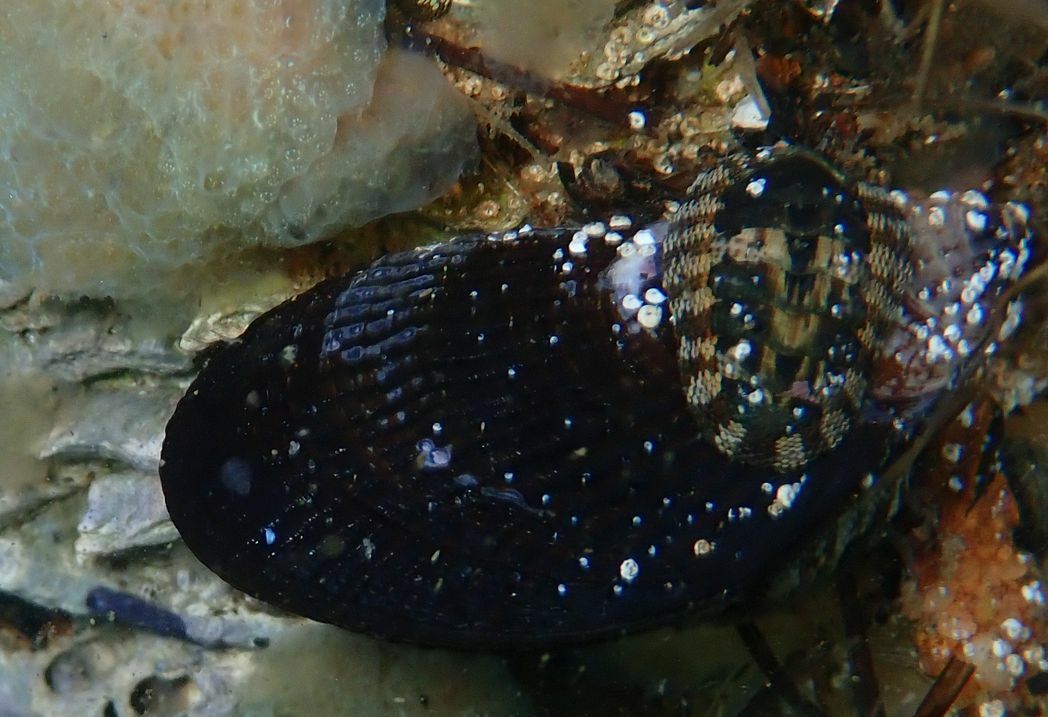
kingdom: Animalia
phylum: Mollusca
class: Bivalvia
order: Mytilida
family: Mytilidae
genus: Aulacomya
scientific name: Aulacomya maoriana
